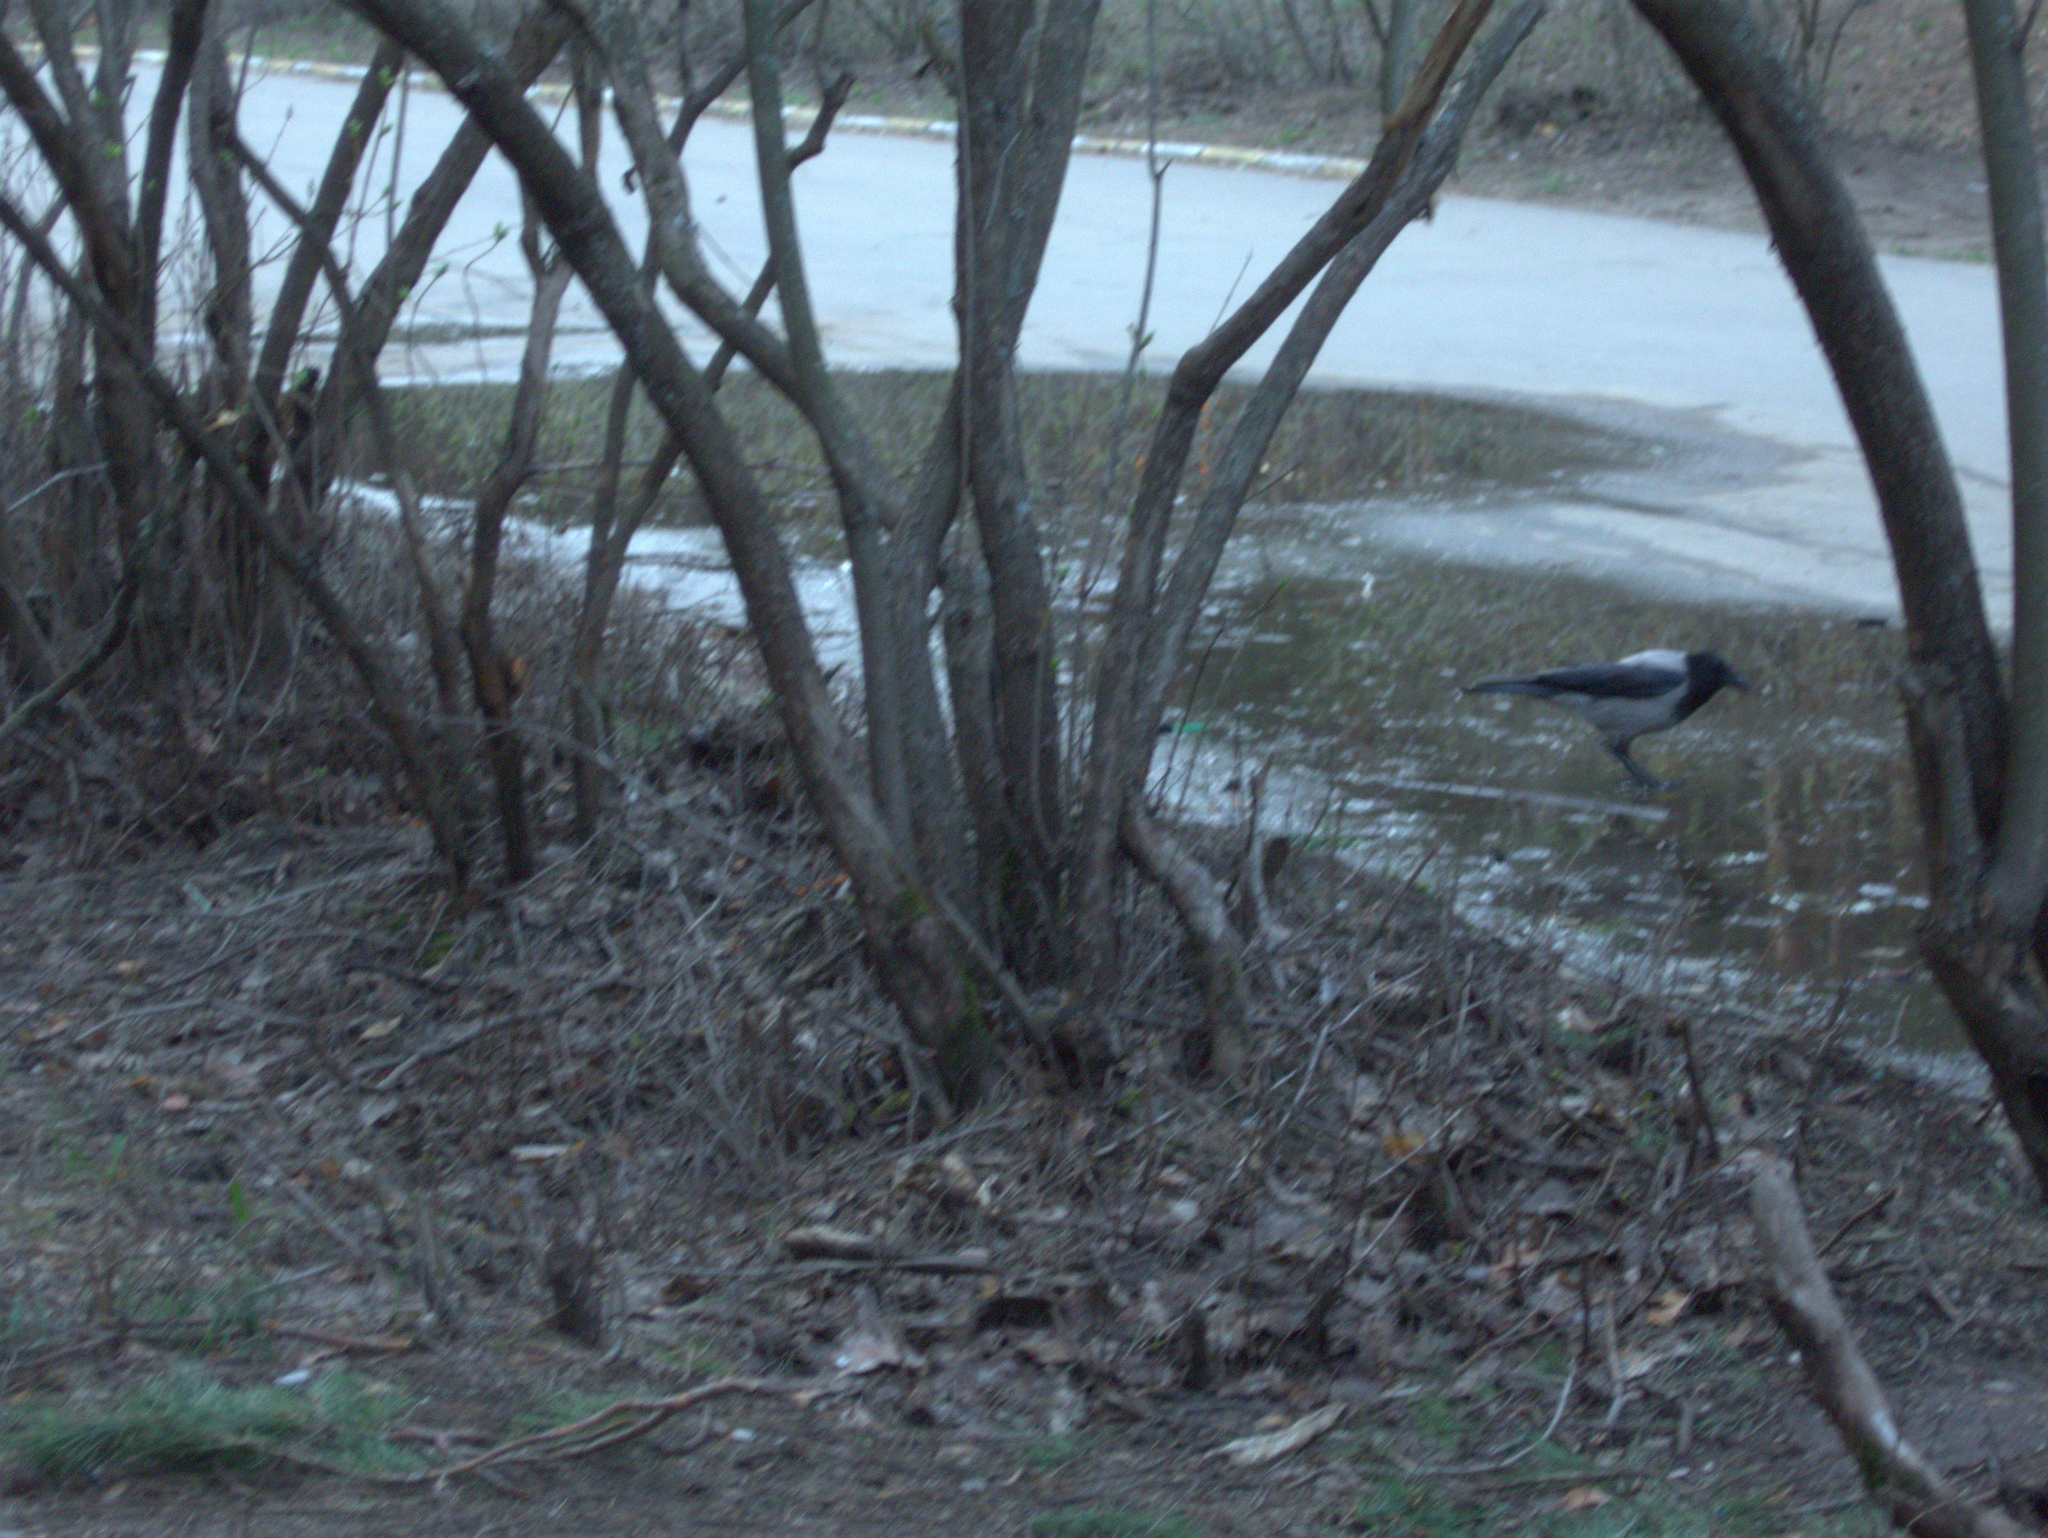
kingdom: Animalia
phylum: Chordata
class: Aves
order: Passeriformes
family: Corvidae
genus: Corvus
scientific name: Corvus cornix
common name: Hooded crow
